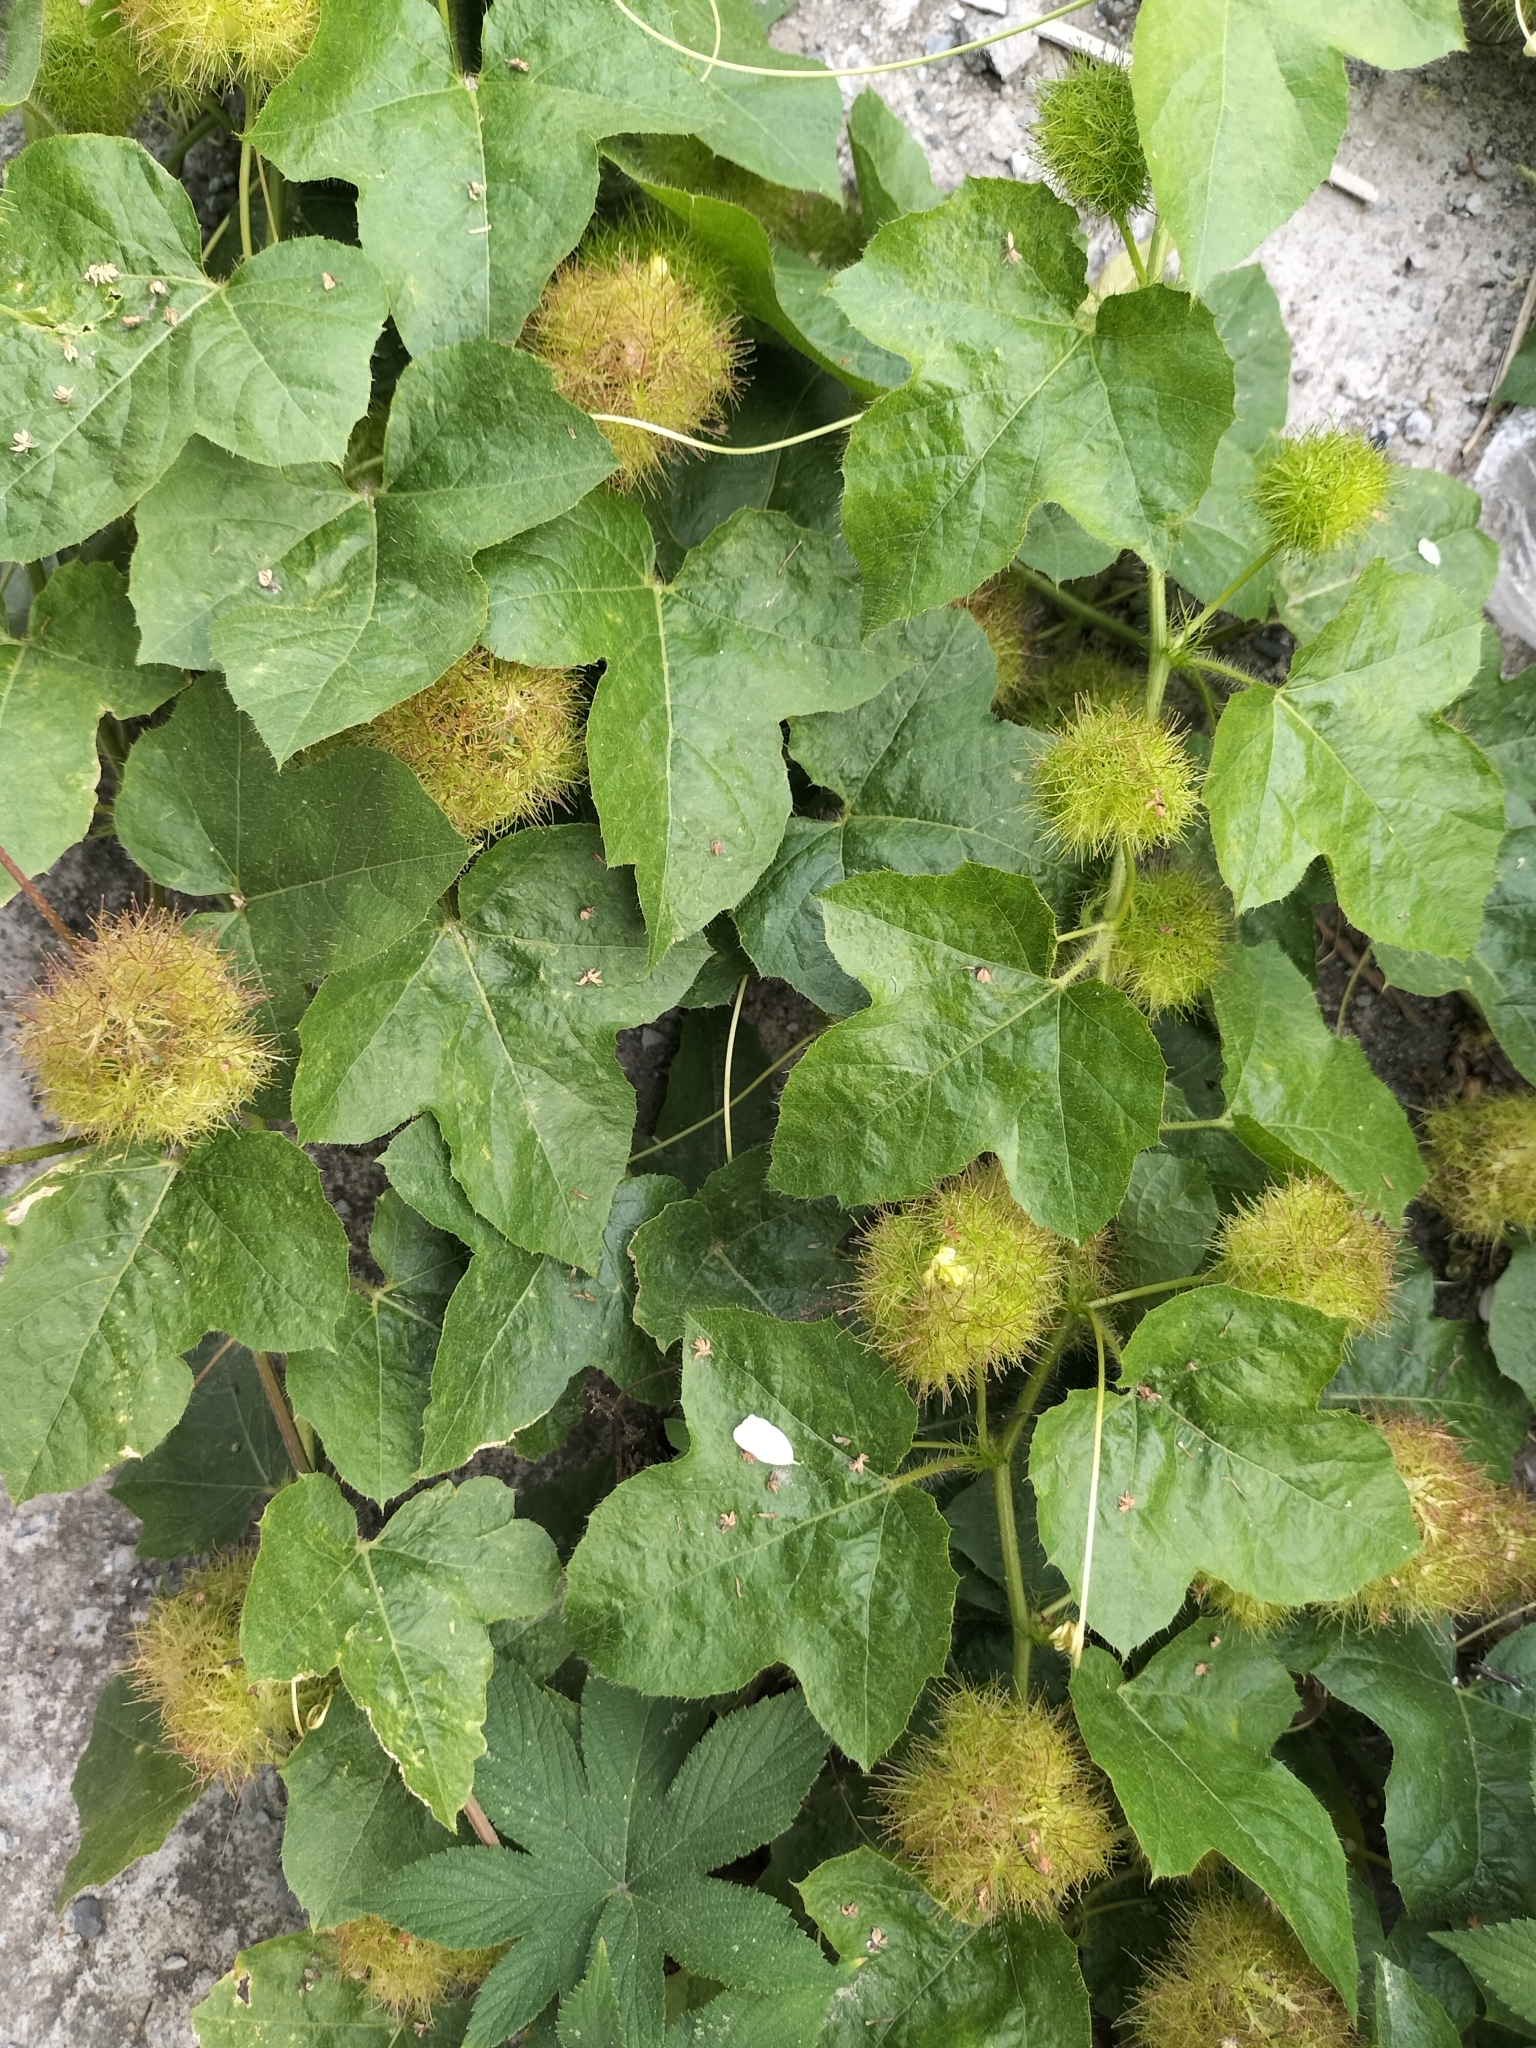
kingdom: Plantae
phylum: Tracheophyta
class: Magnoliopsida
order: Malpighiales
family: Passifloraceae
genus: Passiflora
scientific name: Passiflora vesicaria
